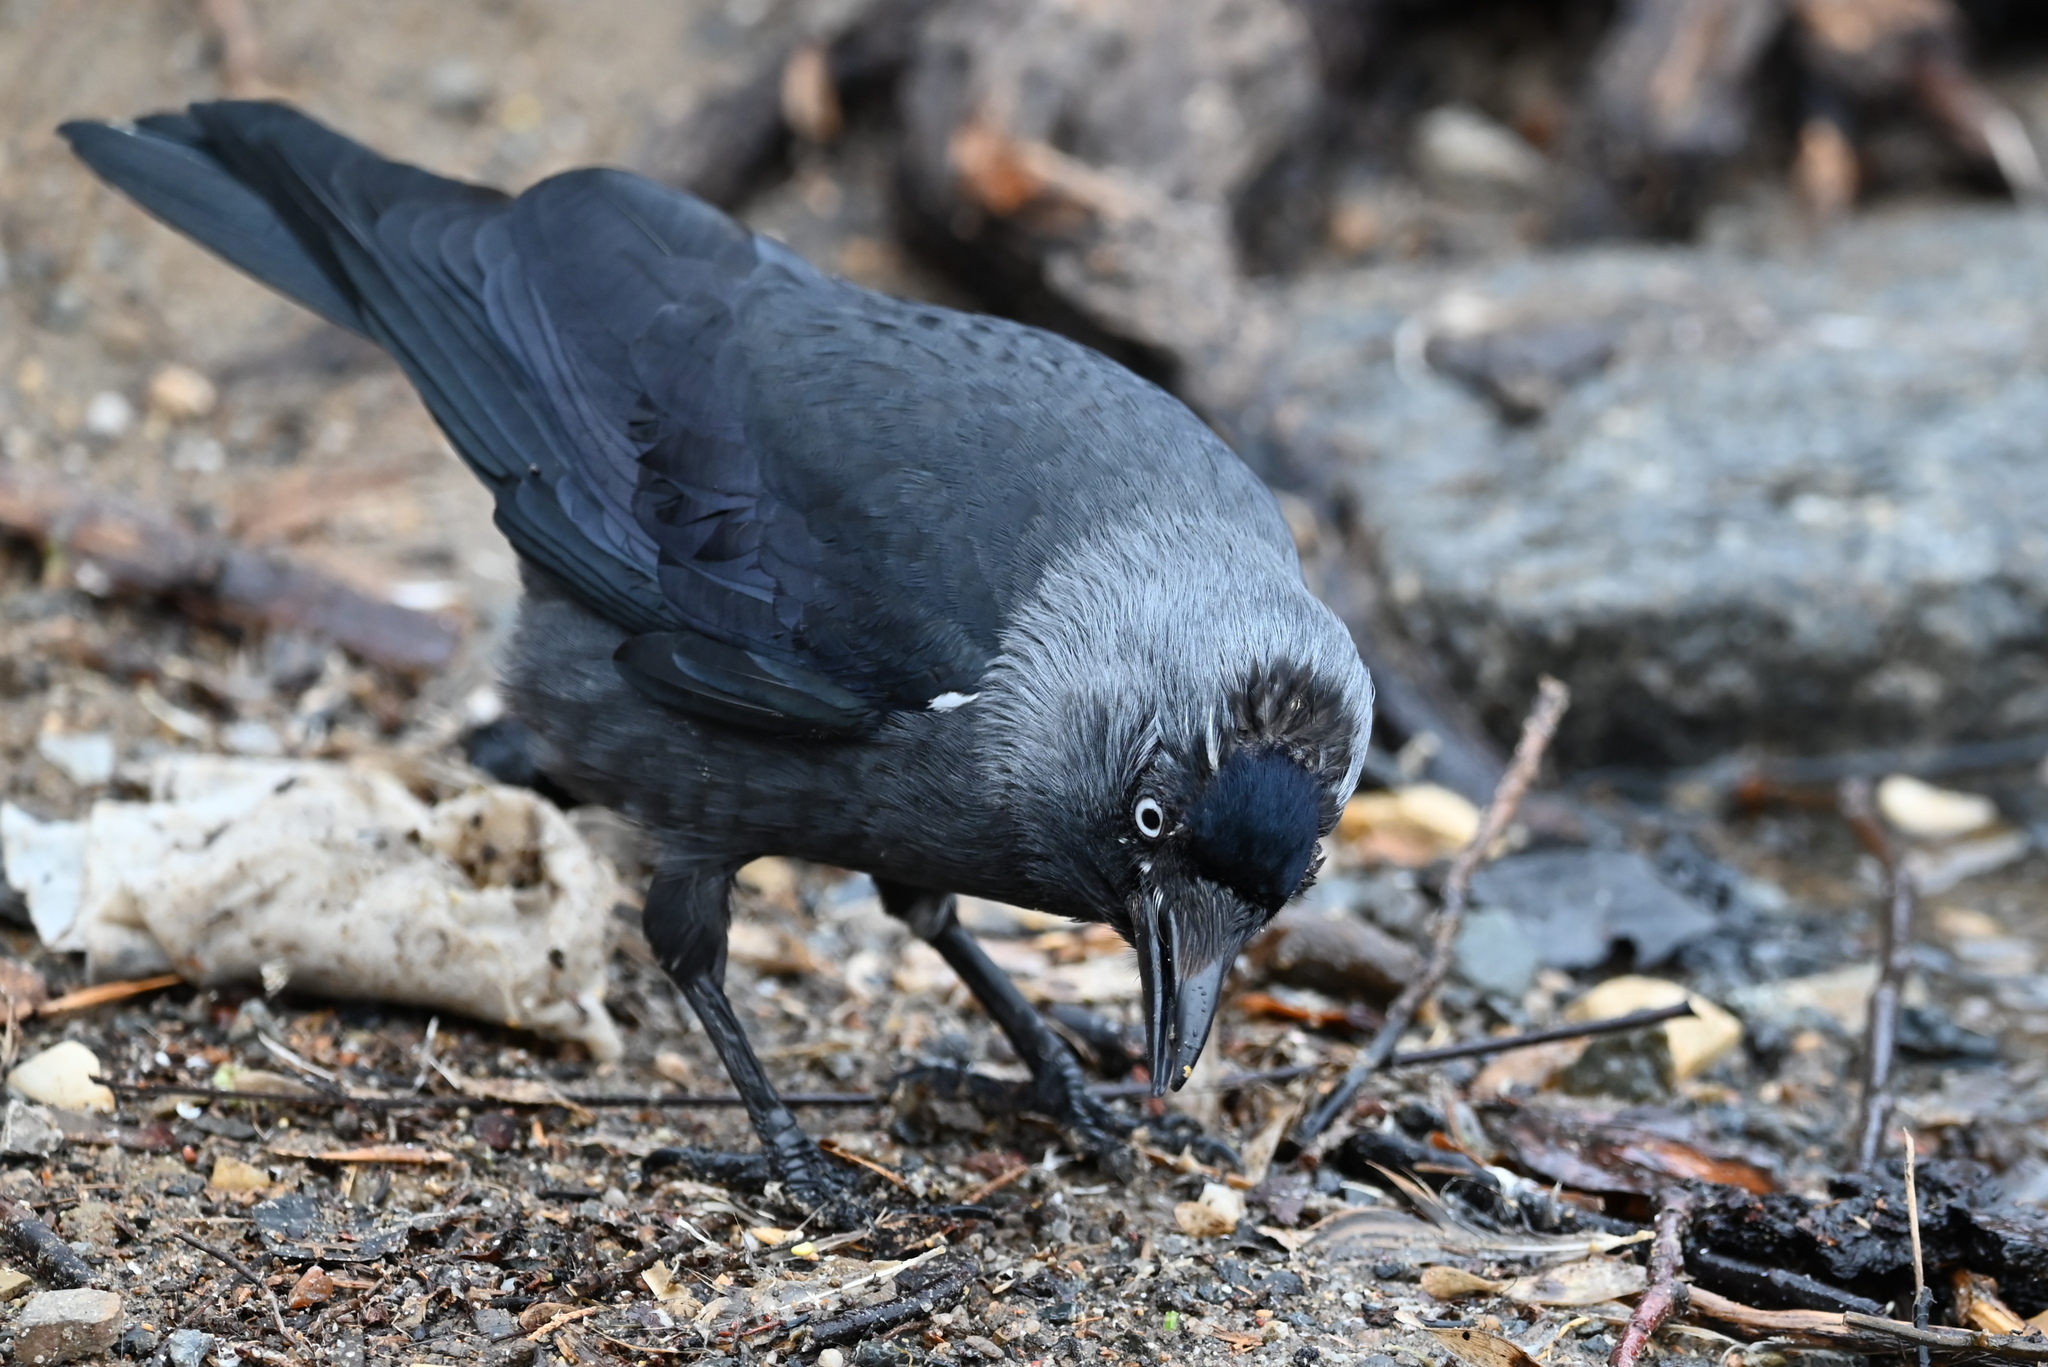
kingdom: Animalia
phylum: Chordata
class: Aves
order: Passeriformes
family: Corvidae
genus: Coloeus
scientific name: Coloeus monedula
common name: Western jackdaw
